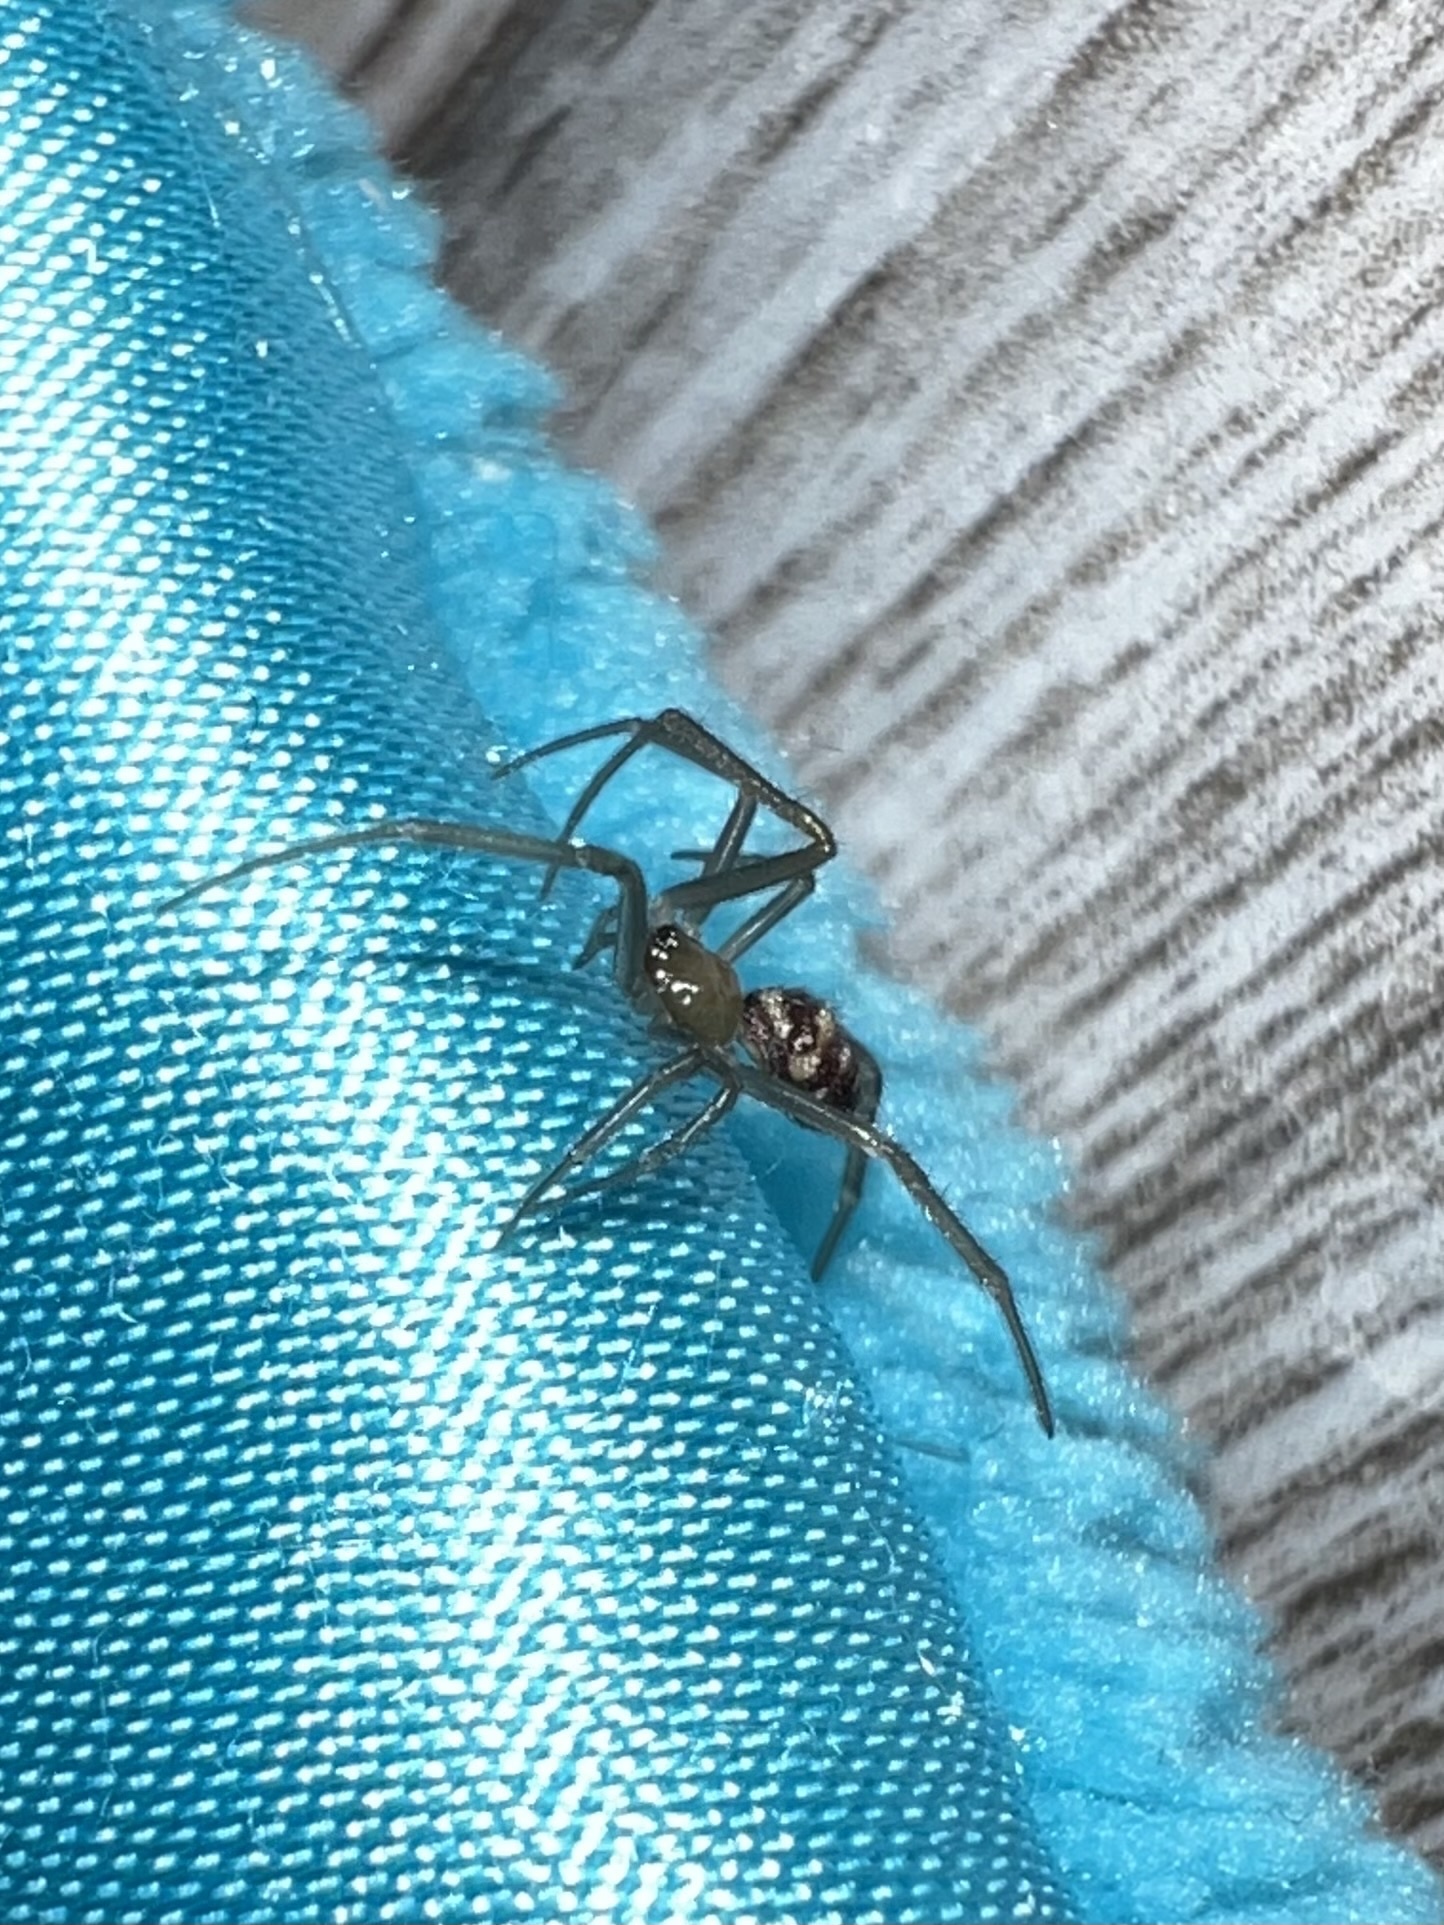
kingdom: Animalia
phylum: Arthropoda
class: Arachnida
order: Araneae
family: Theridiidae
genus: Steatoda
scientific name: Steatoda grossa
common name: False black widow
